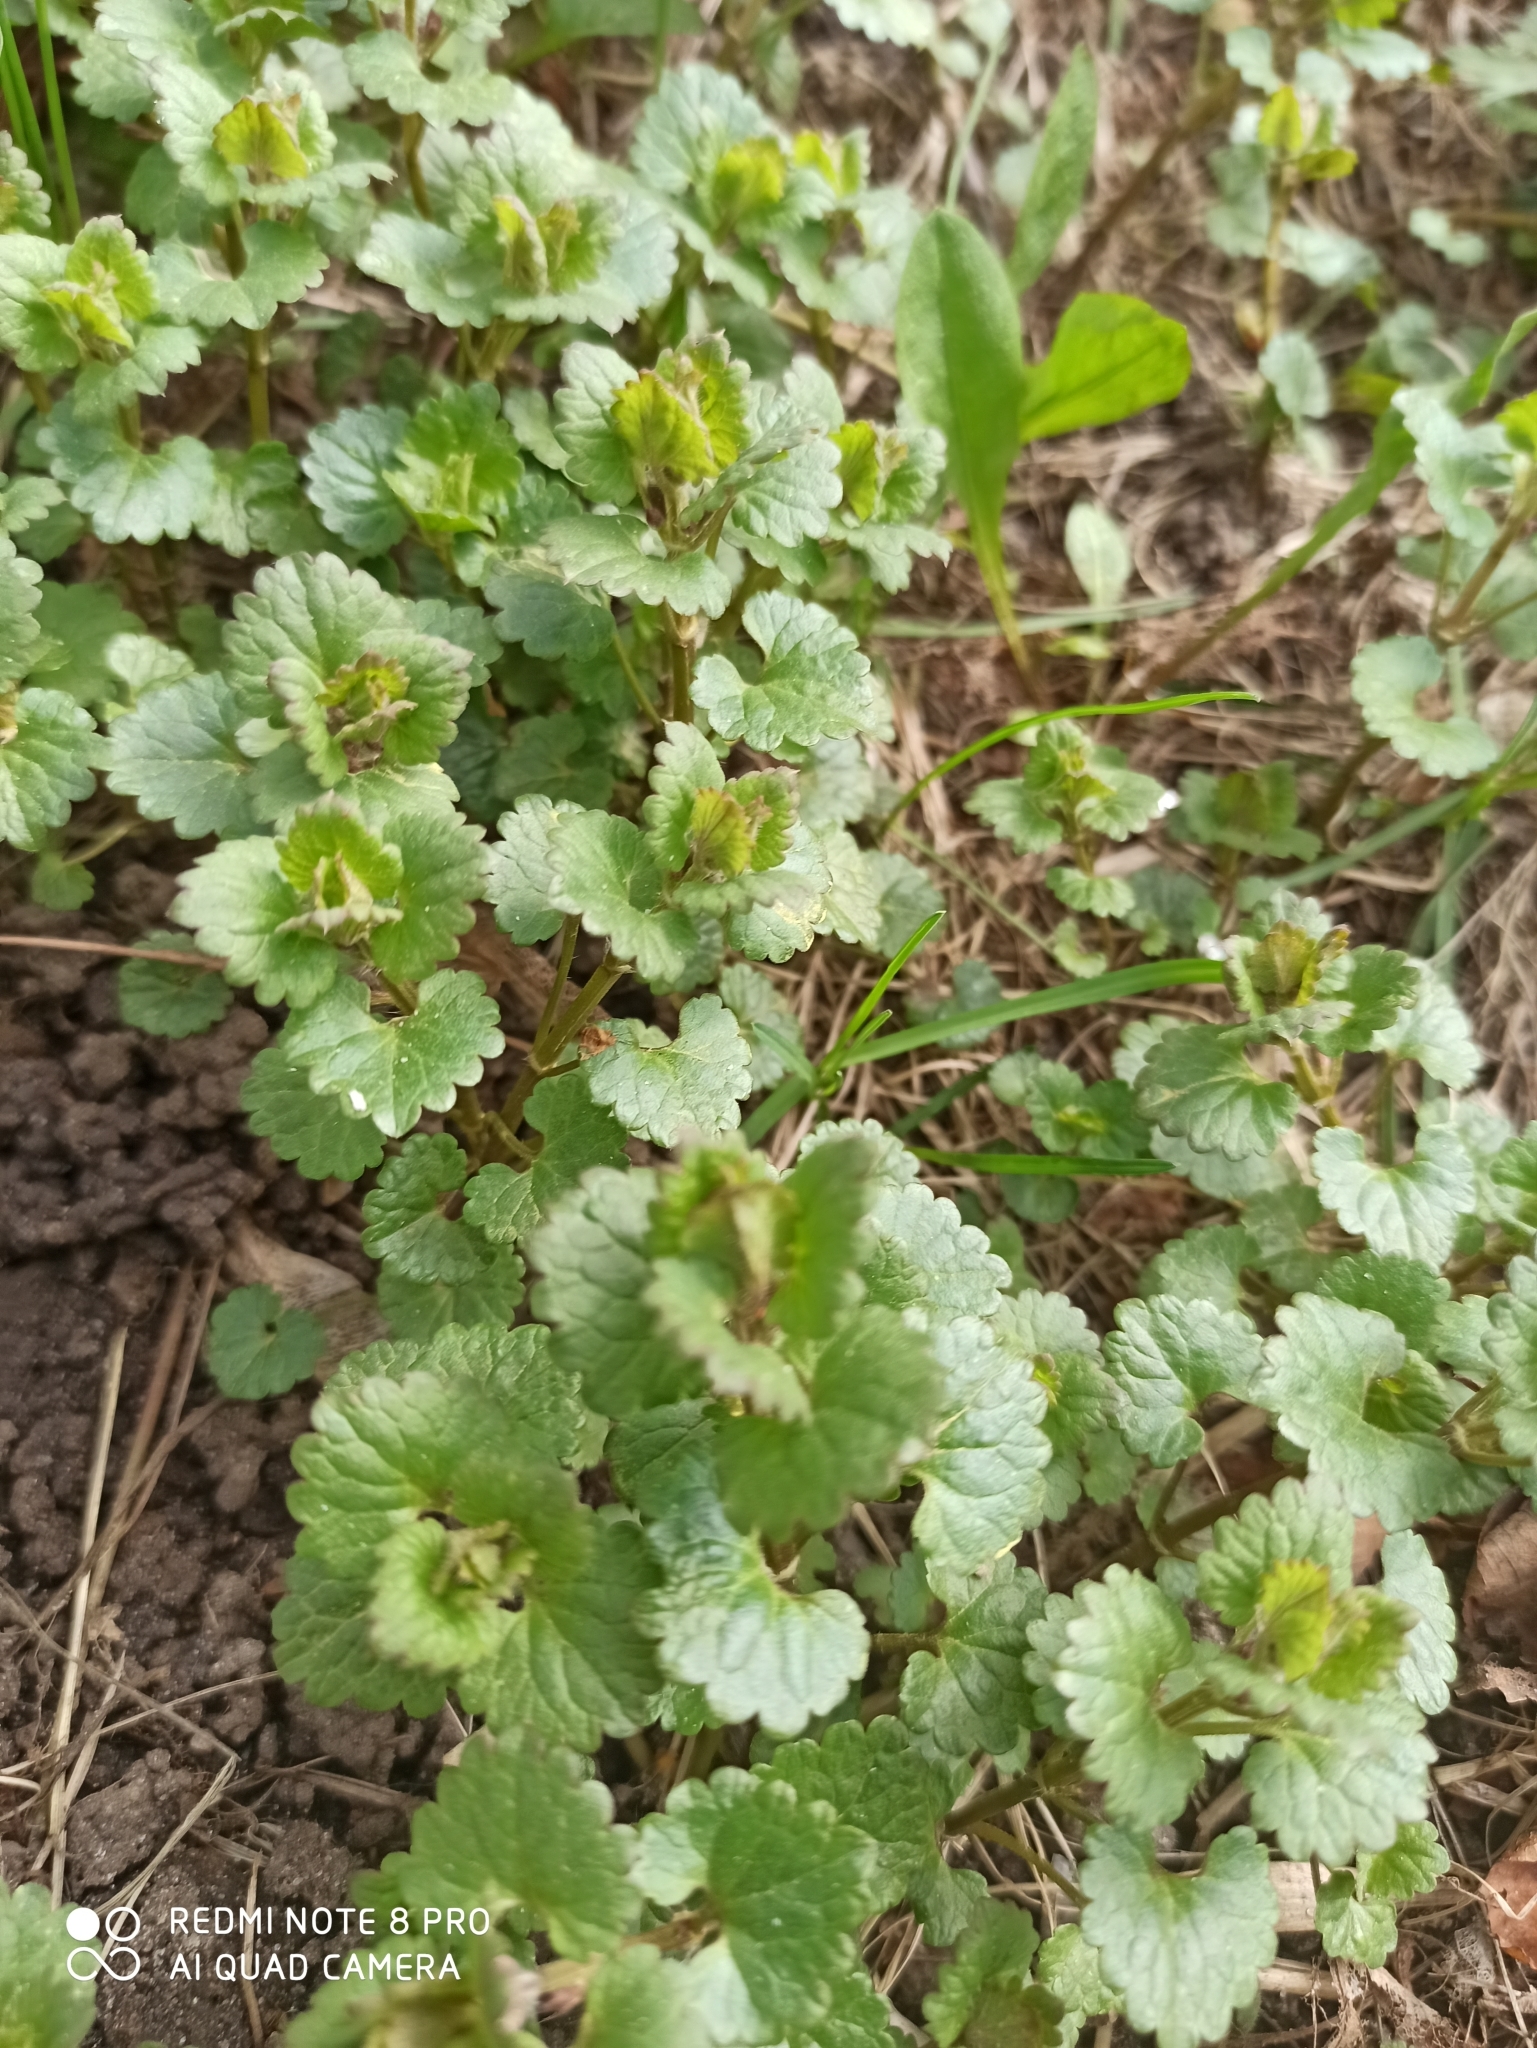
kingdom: Plantae
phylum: Tracheophyta
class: Magnoliopsida
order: Lamiales
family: Lamiaceae
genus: Glechoma
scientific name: Glechoma hederacea
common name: Ground ivy
